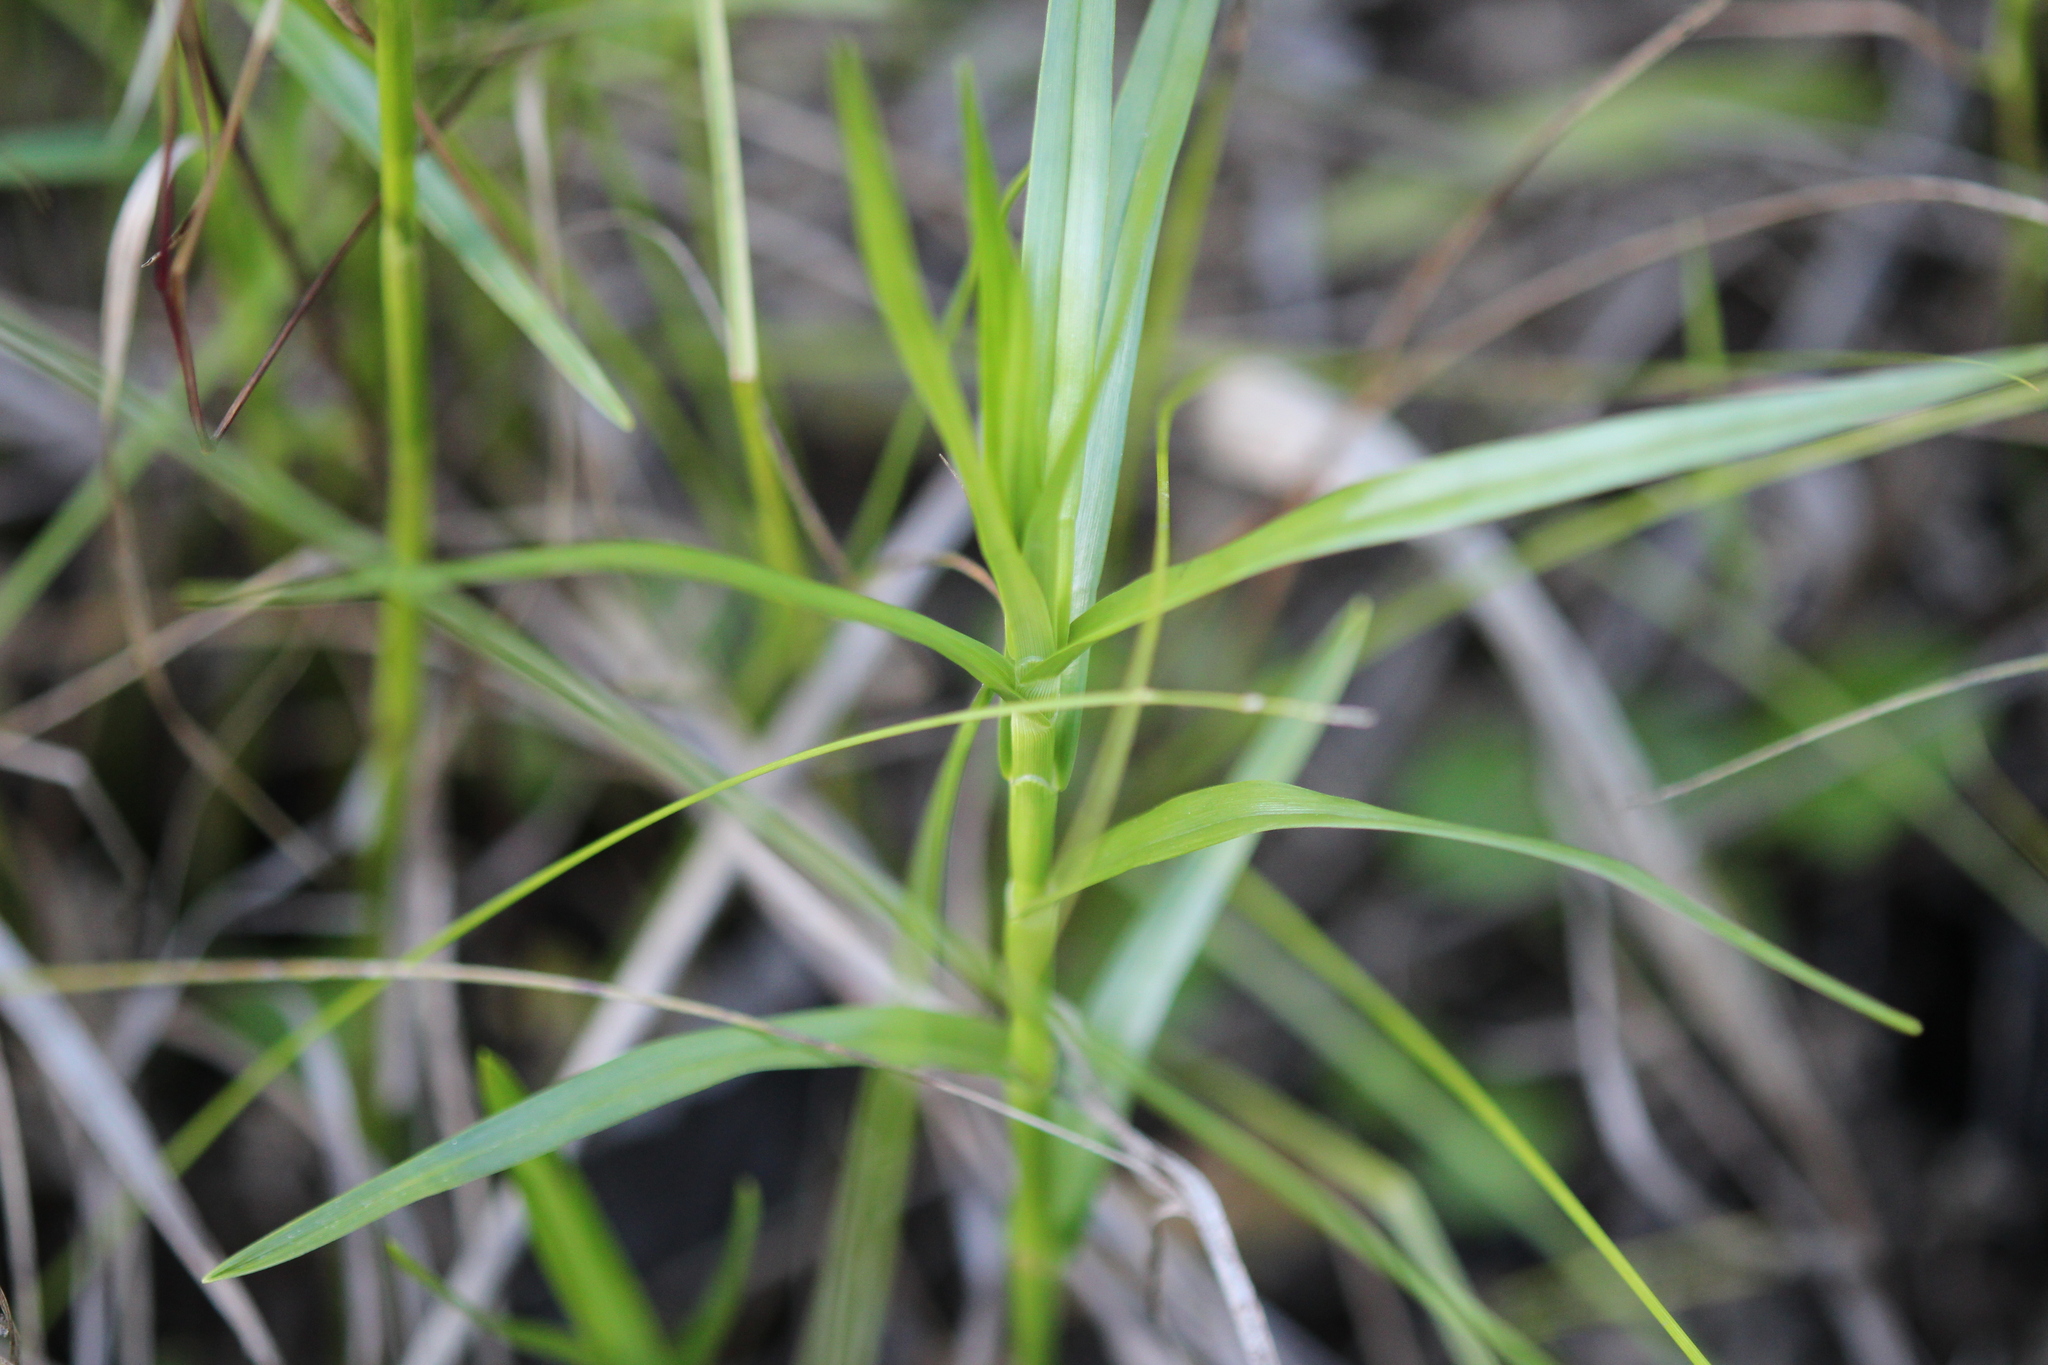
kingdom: Plantae
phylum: Tracheophyta
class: Liliopsida
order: Poales
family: Cyperaceae
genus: Dulichium
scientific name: Dulichium arundinaceum
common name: Three-way sedge
